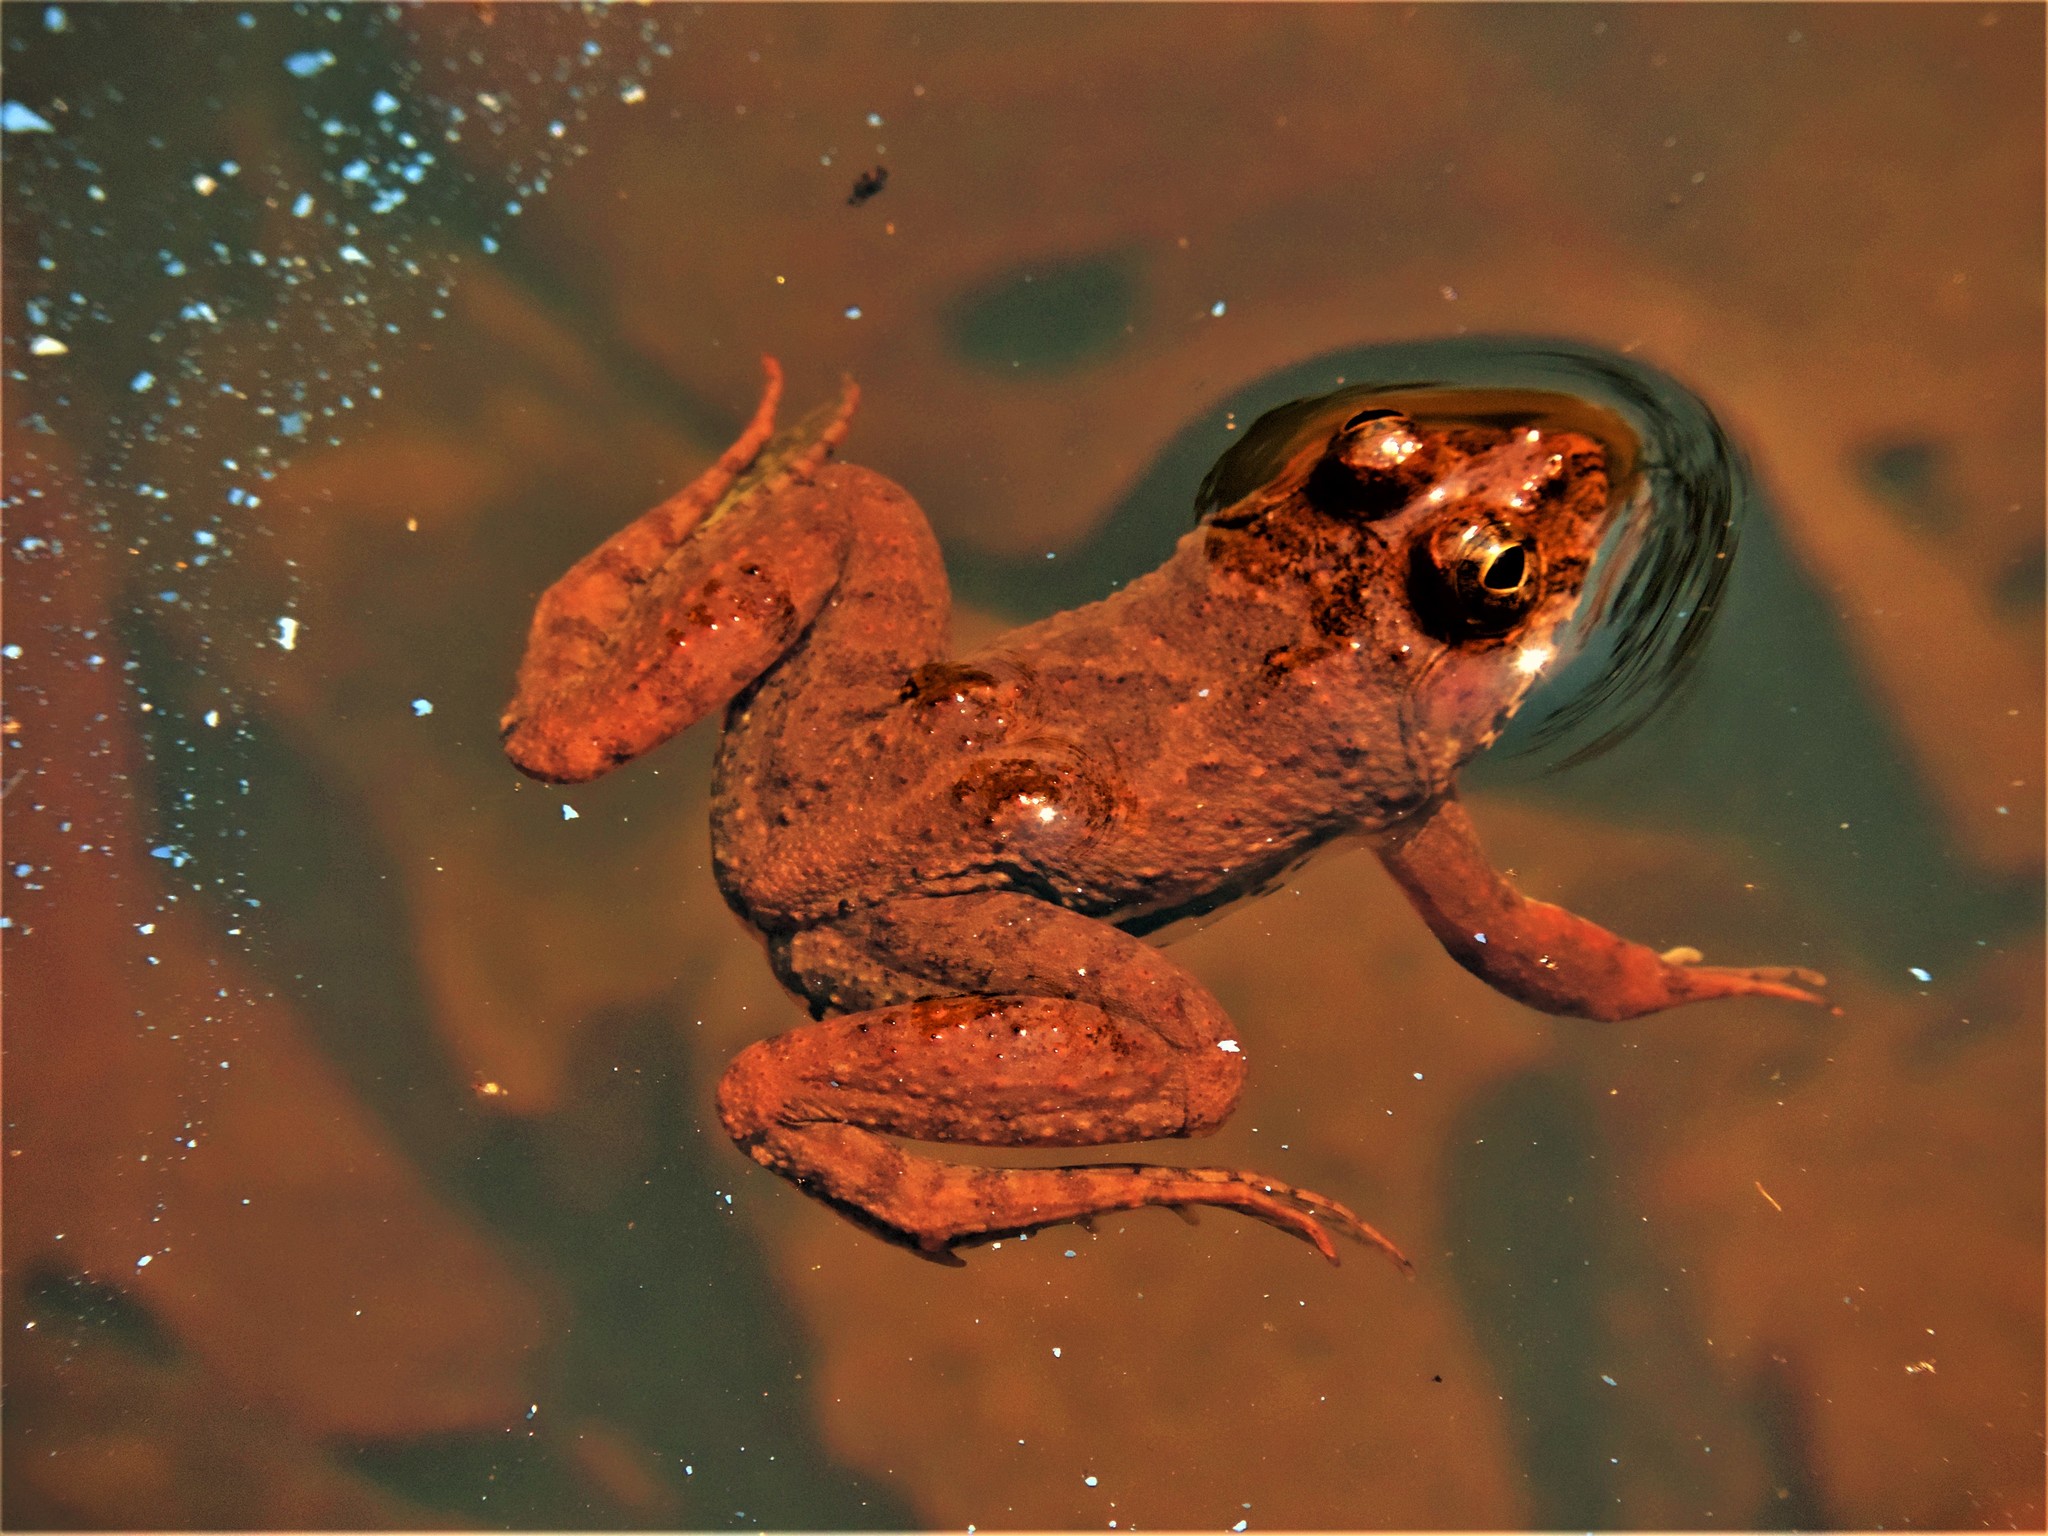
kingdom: Animalia
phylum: Chordata
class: Amphibia
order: Anura
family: Dicroglossidae
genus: Euphlyctis
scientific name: Euphlyctis cyanophlyctis
